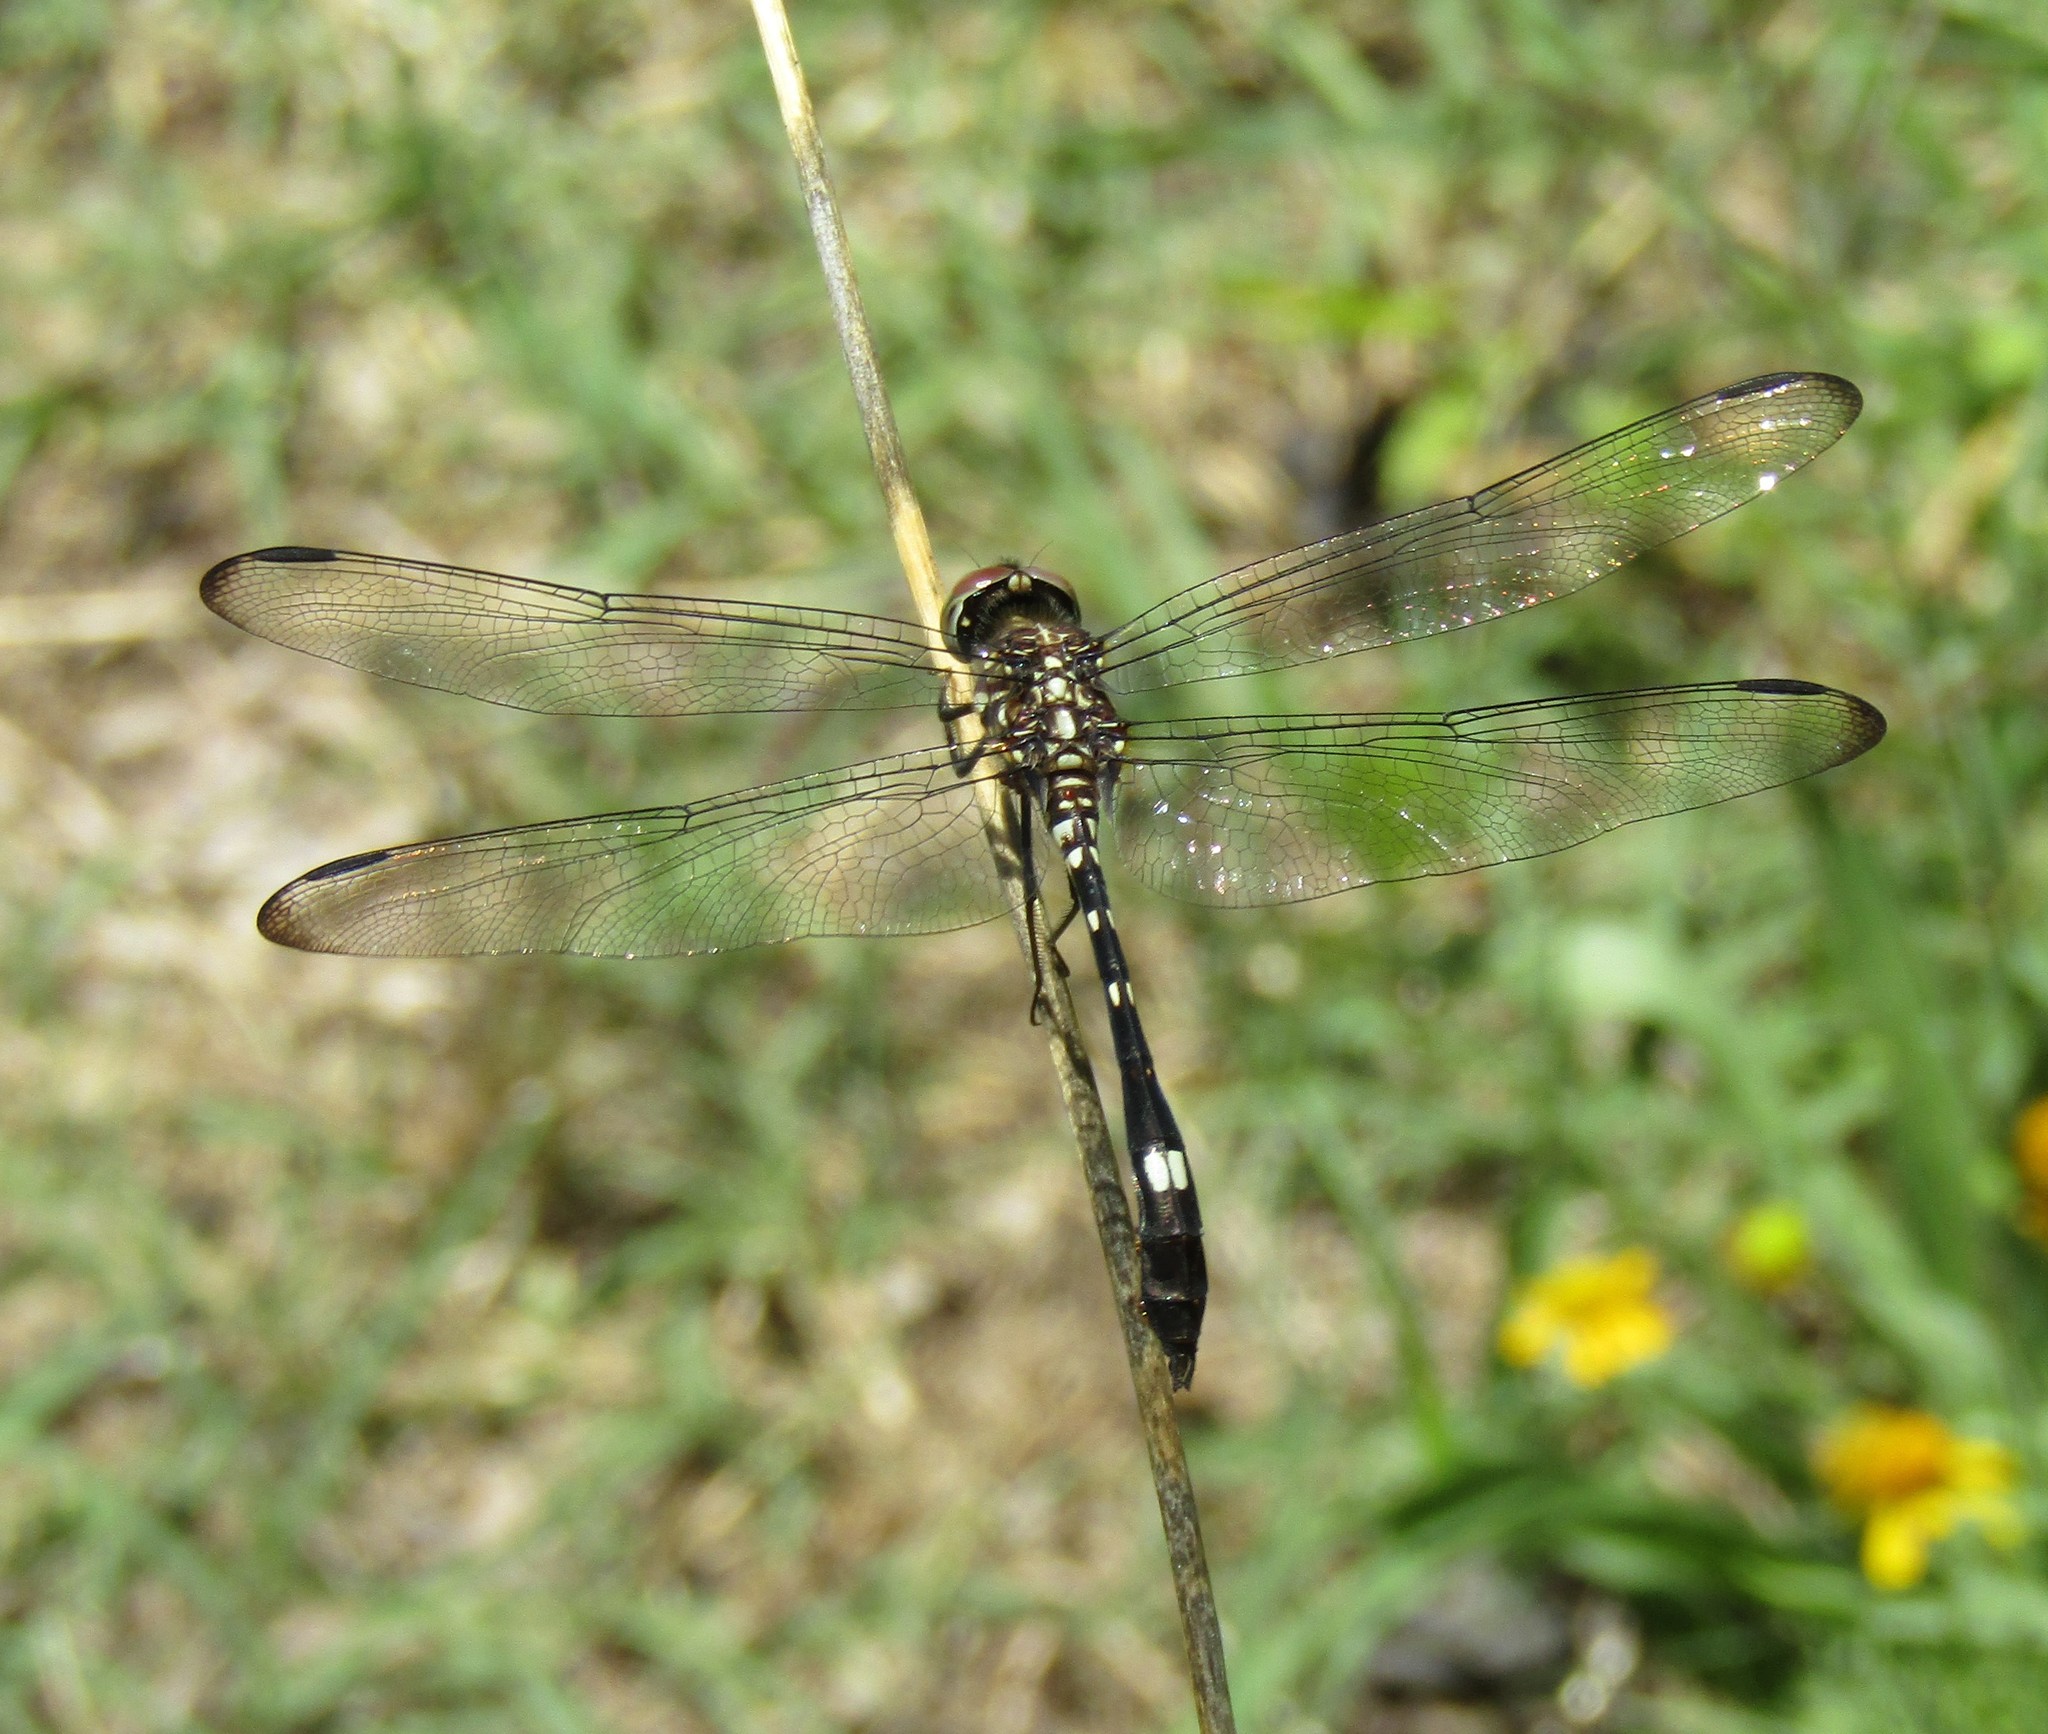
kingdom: Animalia
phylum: Arthropoda
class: Insecta
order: Odonata
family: Libellulidae
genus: Dythemis
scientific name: Dythemis velox
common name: Swift setwing
